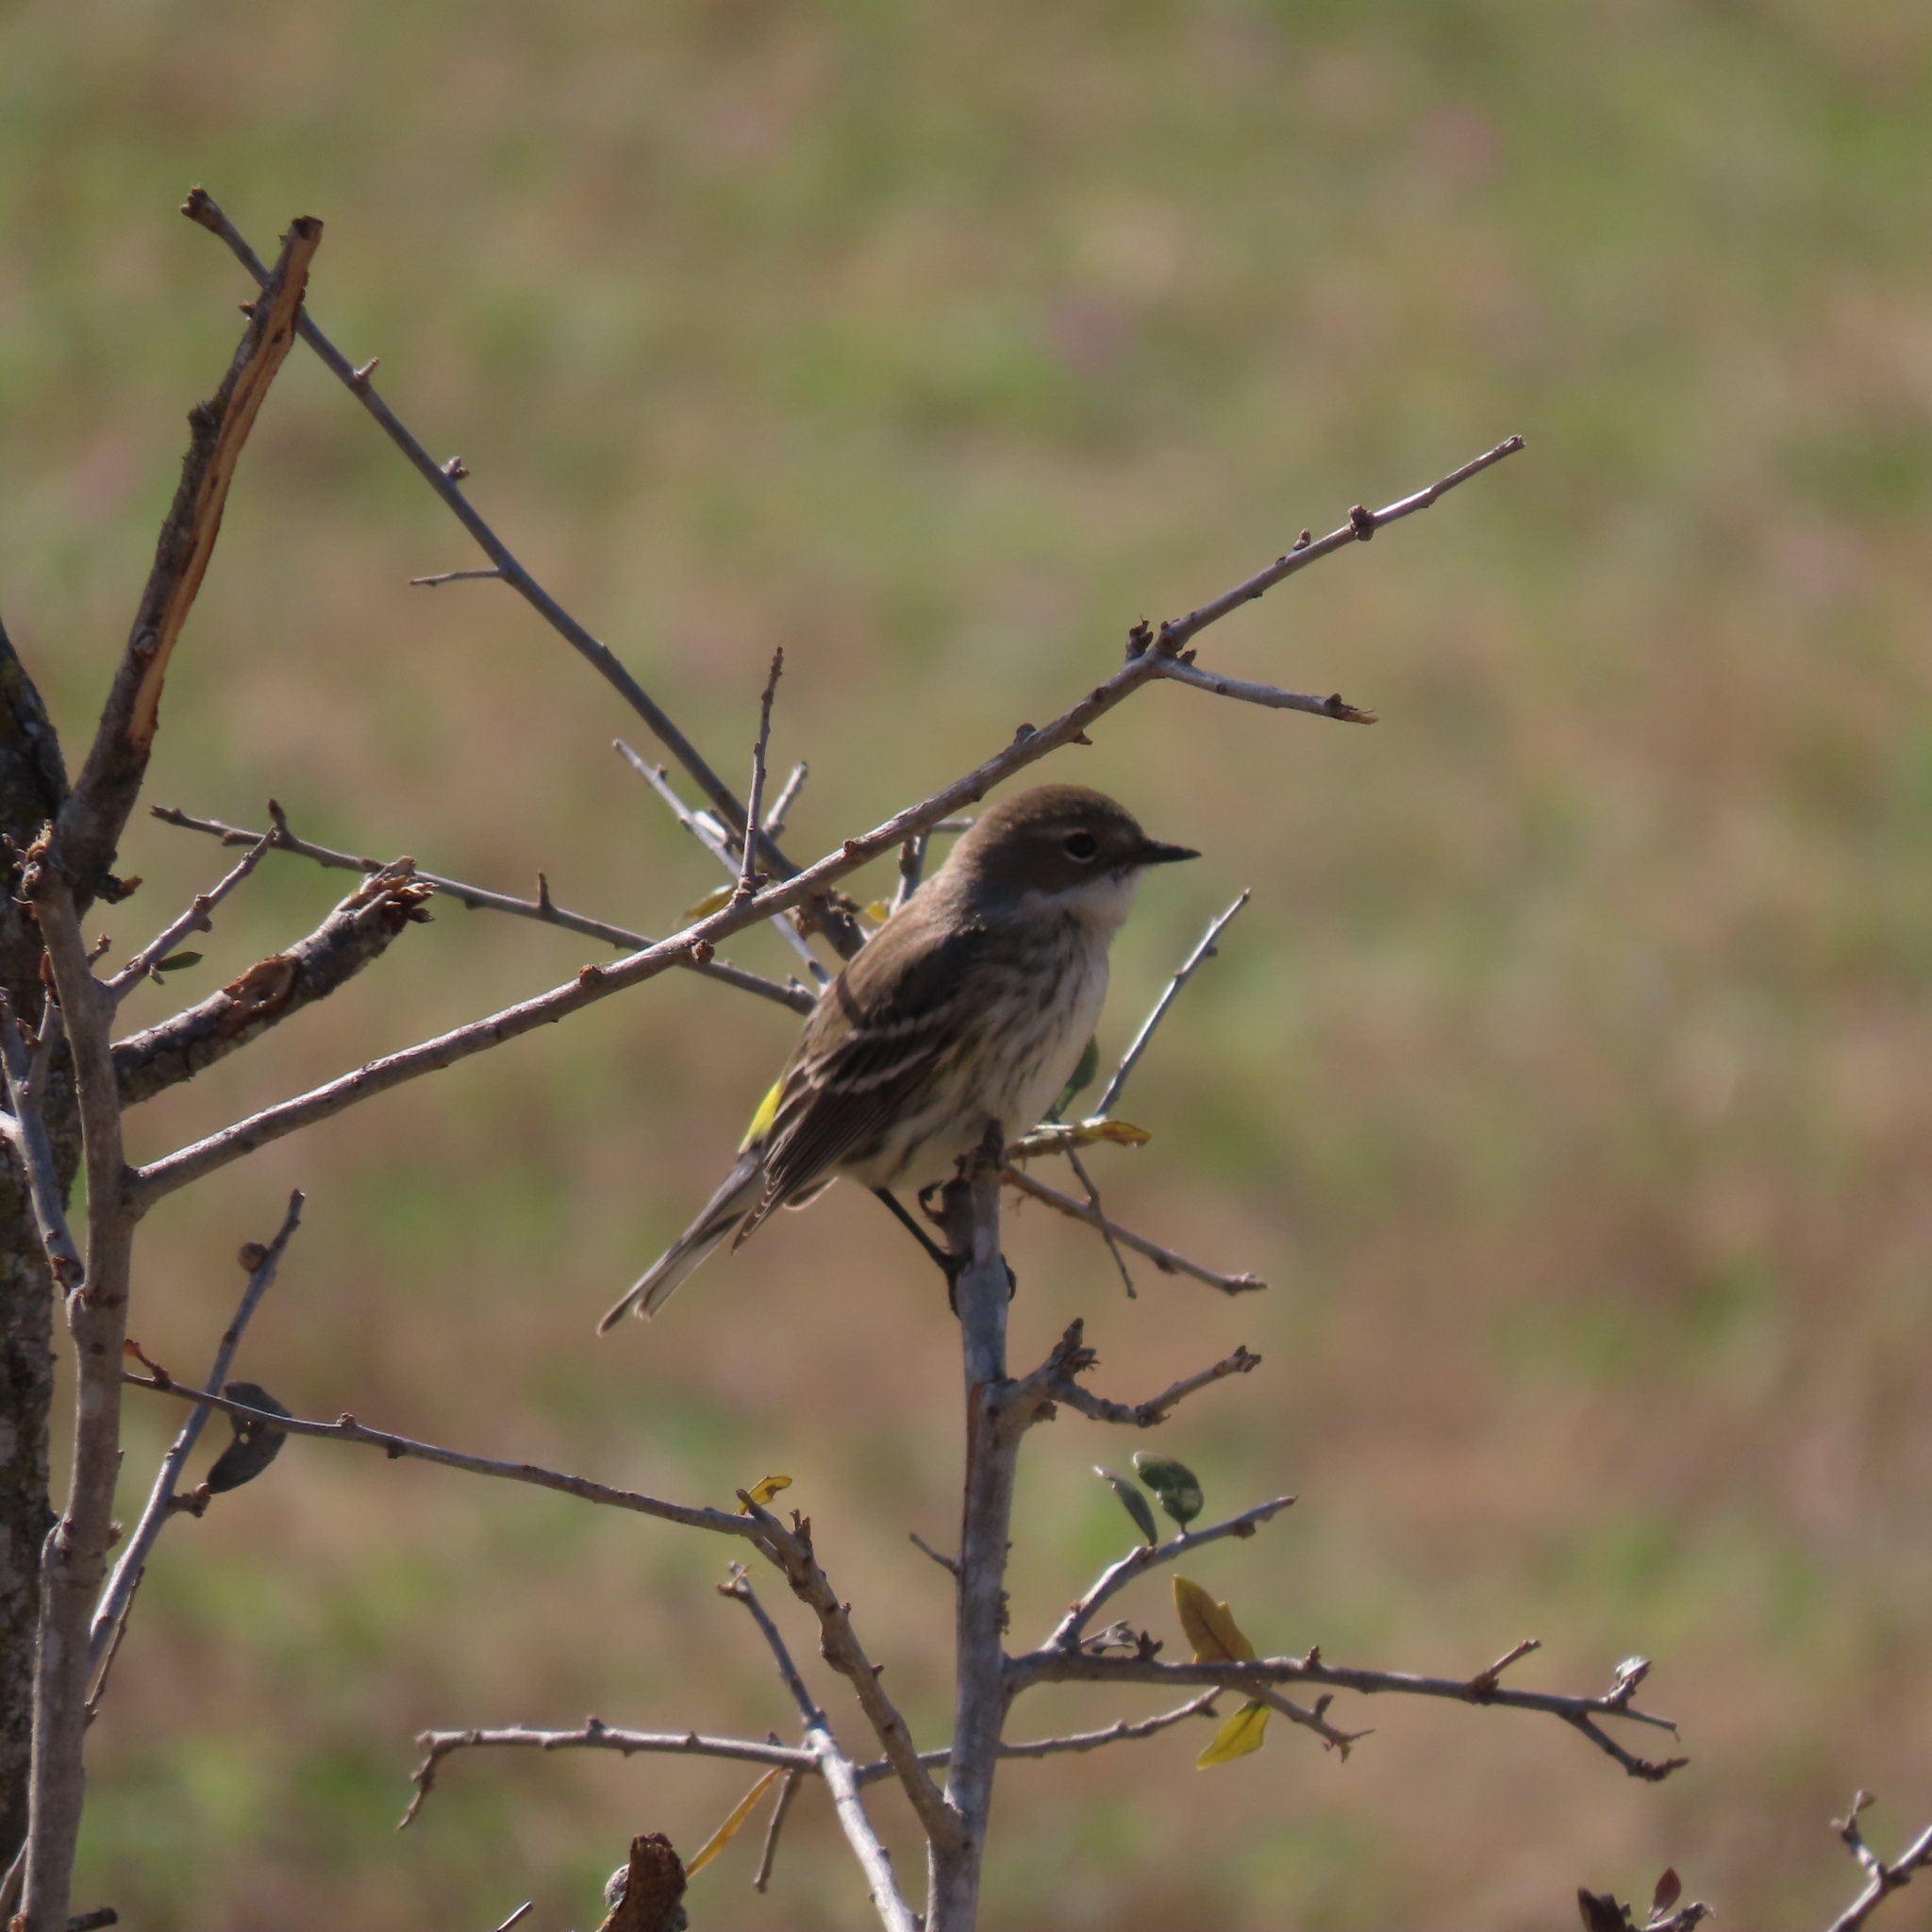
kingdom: Animalia
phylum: Chordata
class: Aves
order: Passeriformes
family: Parulidae
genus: Setophaga
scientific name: Setophaga coronata
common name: Myrtle warbler
